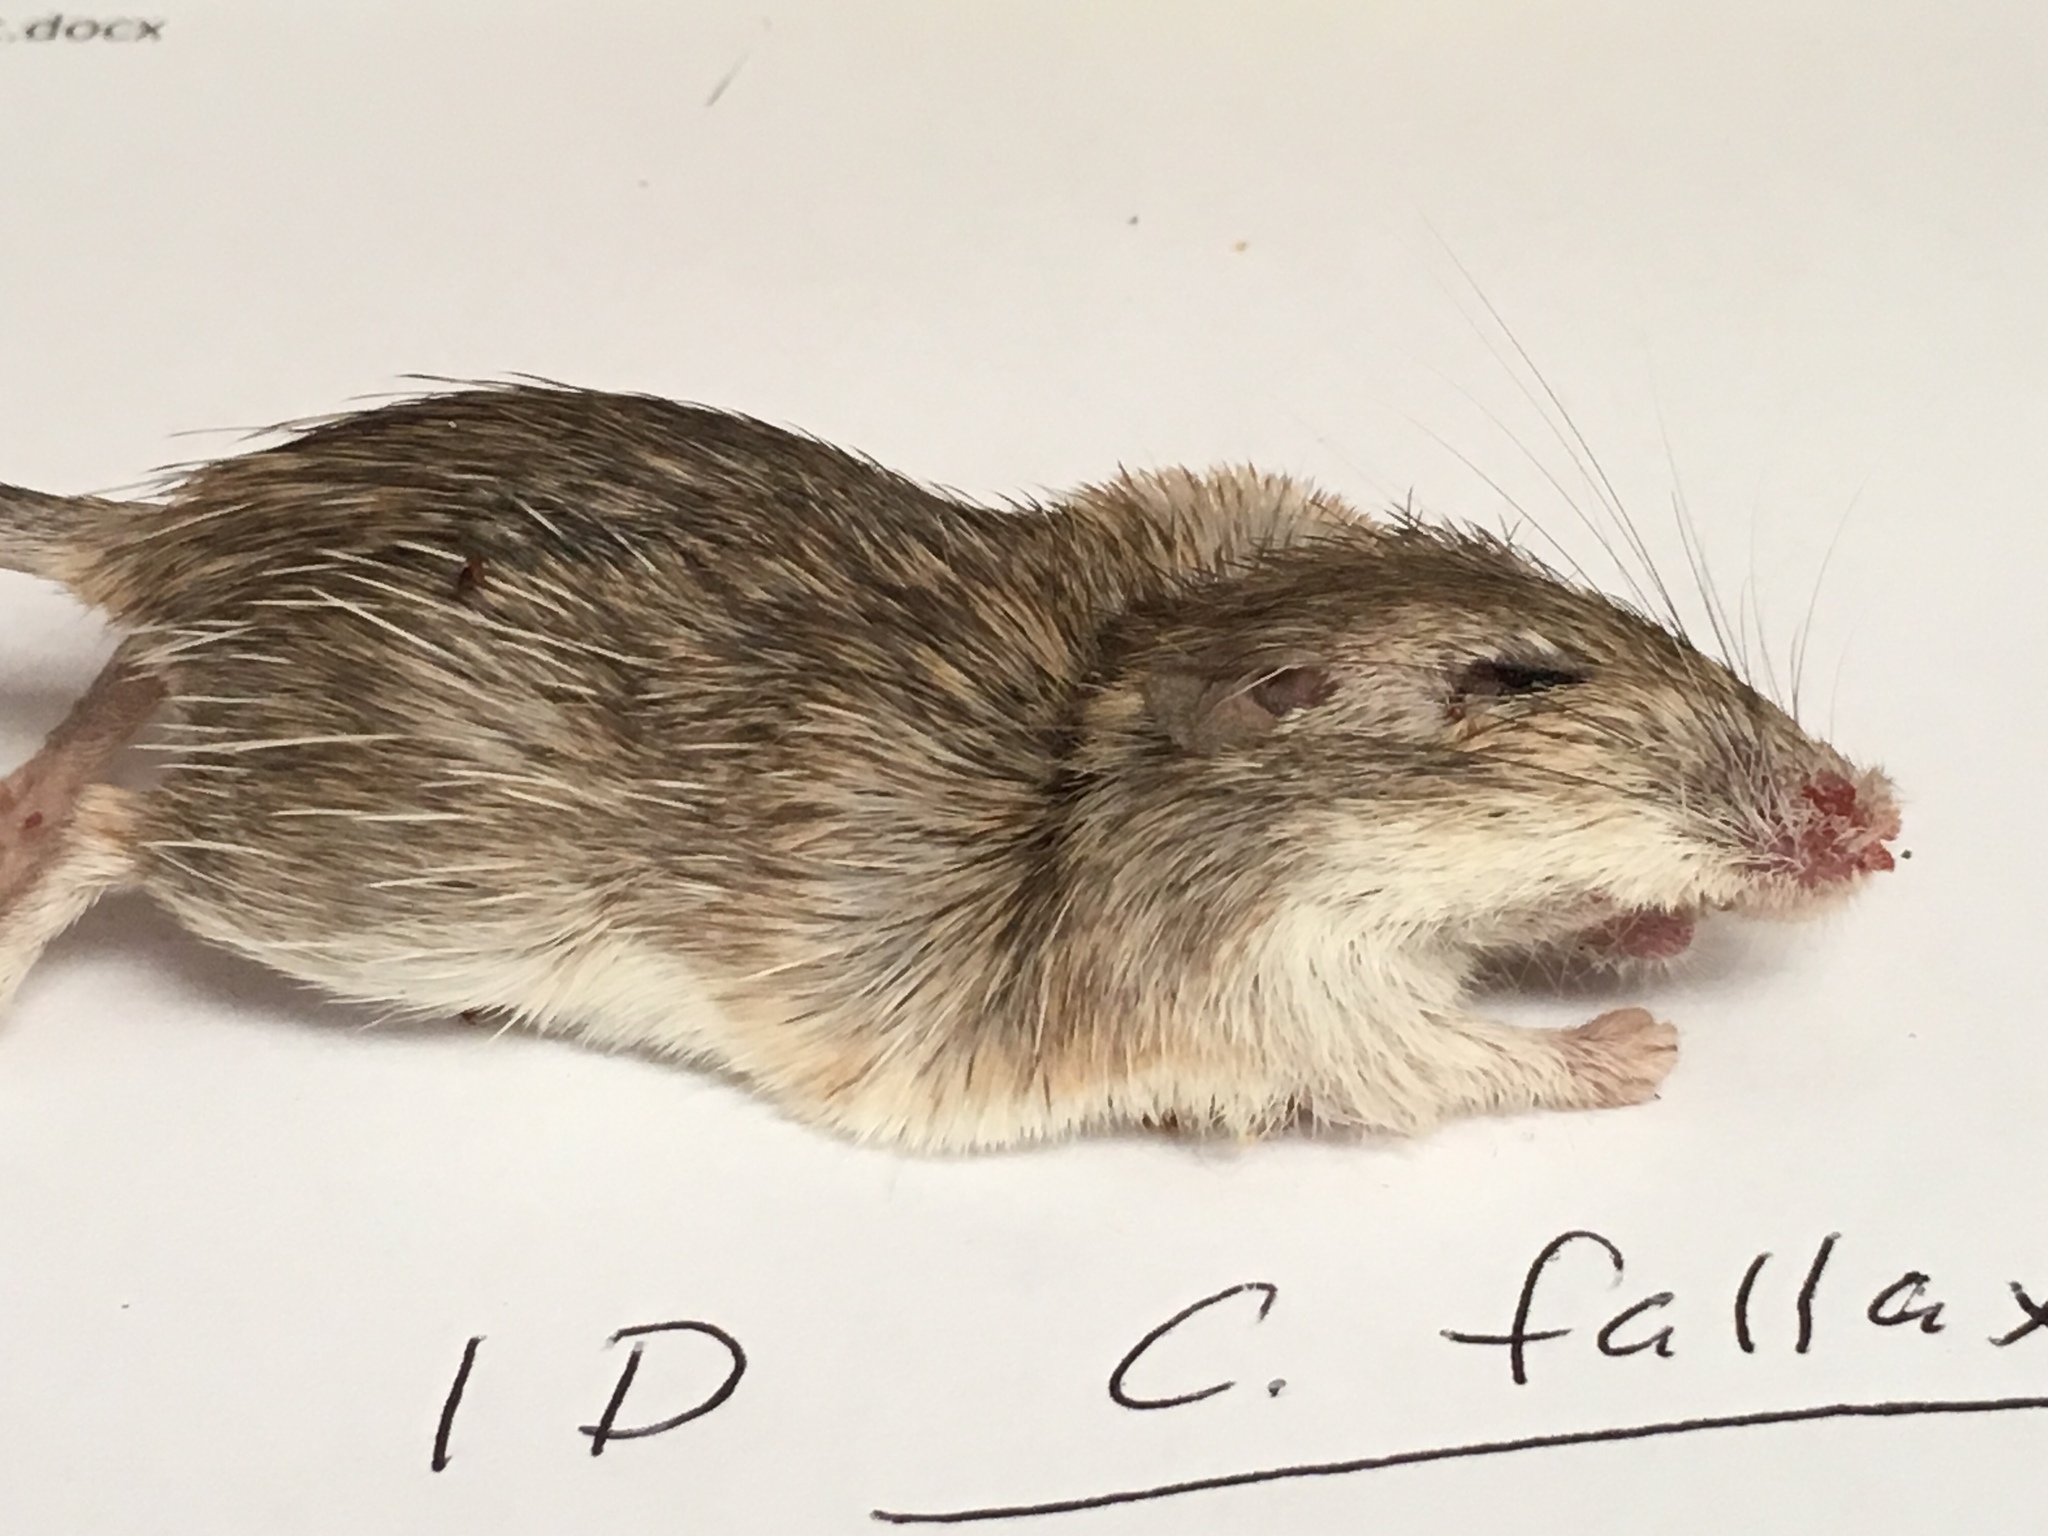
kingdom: Animalia
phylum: Chordata
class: Mammalia
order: Rodentia
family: Heteromyidae
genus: Chaetodipus
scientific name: Chaetodipus fallax
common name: San diego pocket mouse
